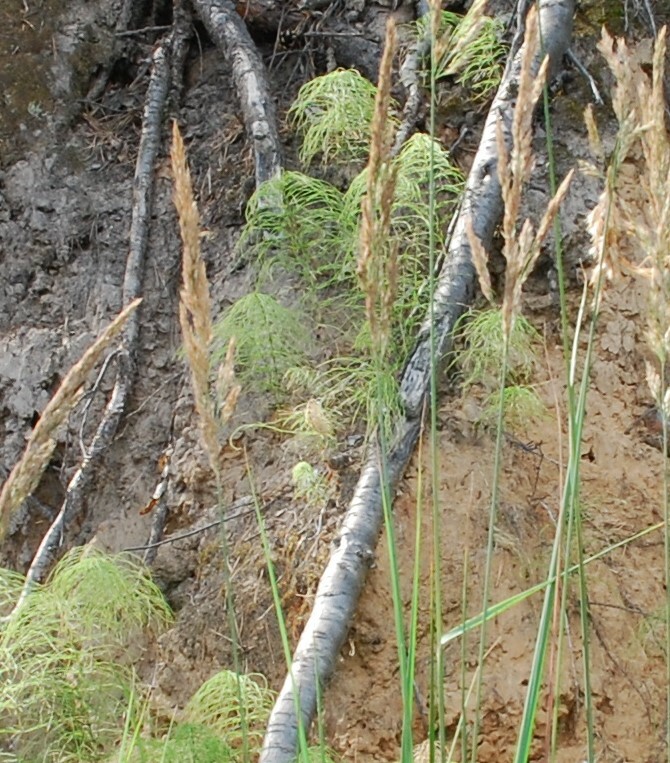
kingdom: Plantae
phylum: Tracheophyta
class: Polypodiopsida
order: Equisetales
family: Equisetaceae
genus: Equisetum
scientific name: Equisetum sylvaticum
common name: Wood horsetail
